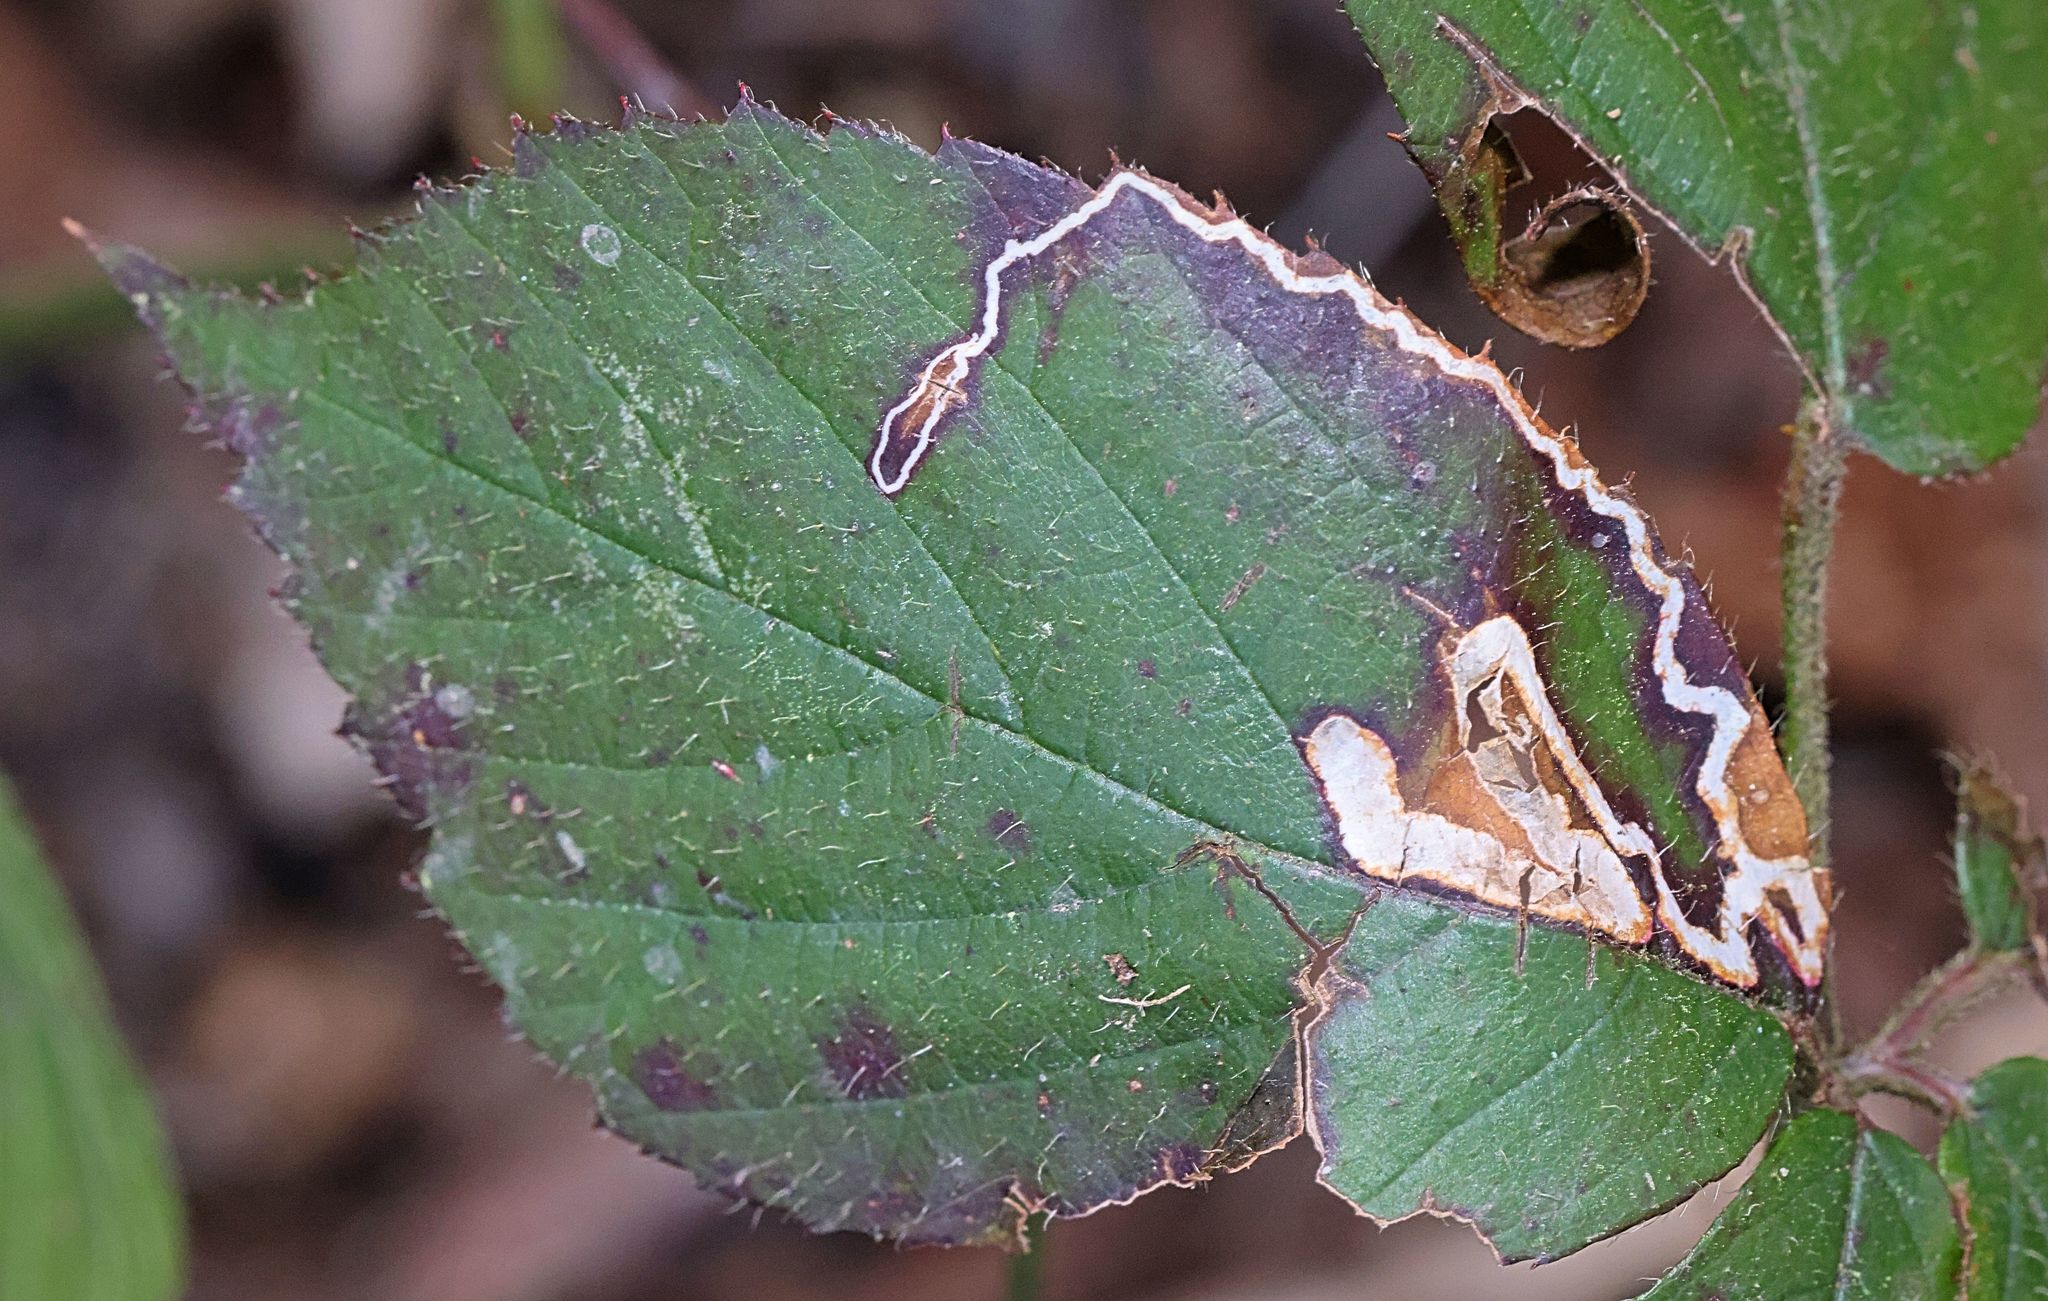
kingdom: Animalia
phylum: Arthropoda
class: Insecta
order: Lepidoptera
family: Nepticulidae
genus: Stigmella
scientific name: Stigmella aurella
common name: Golden pigmy
